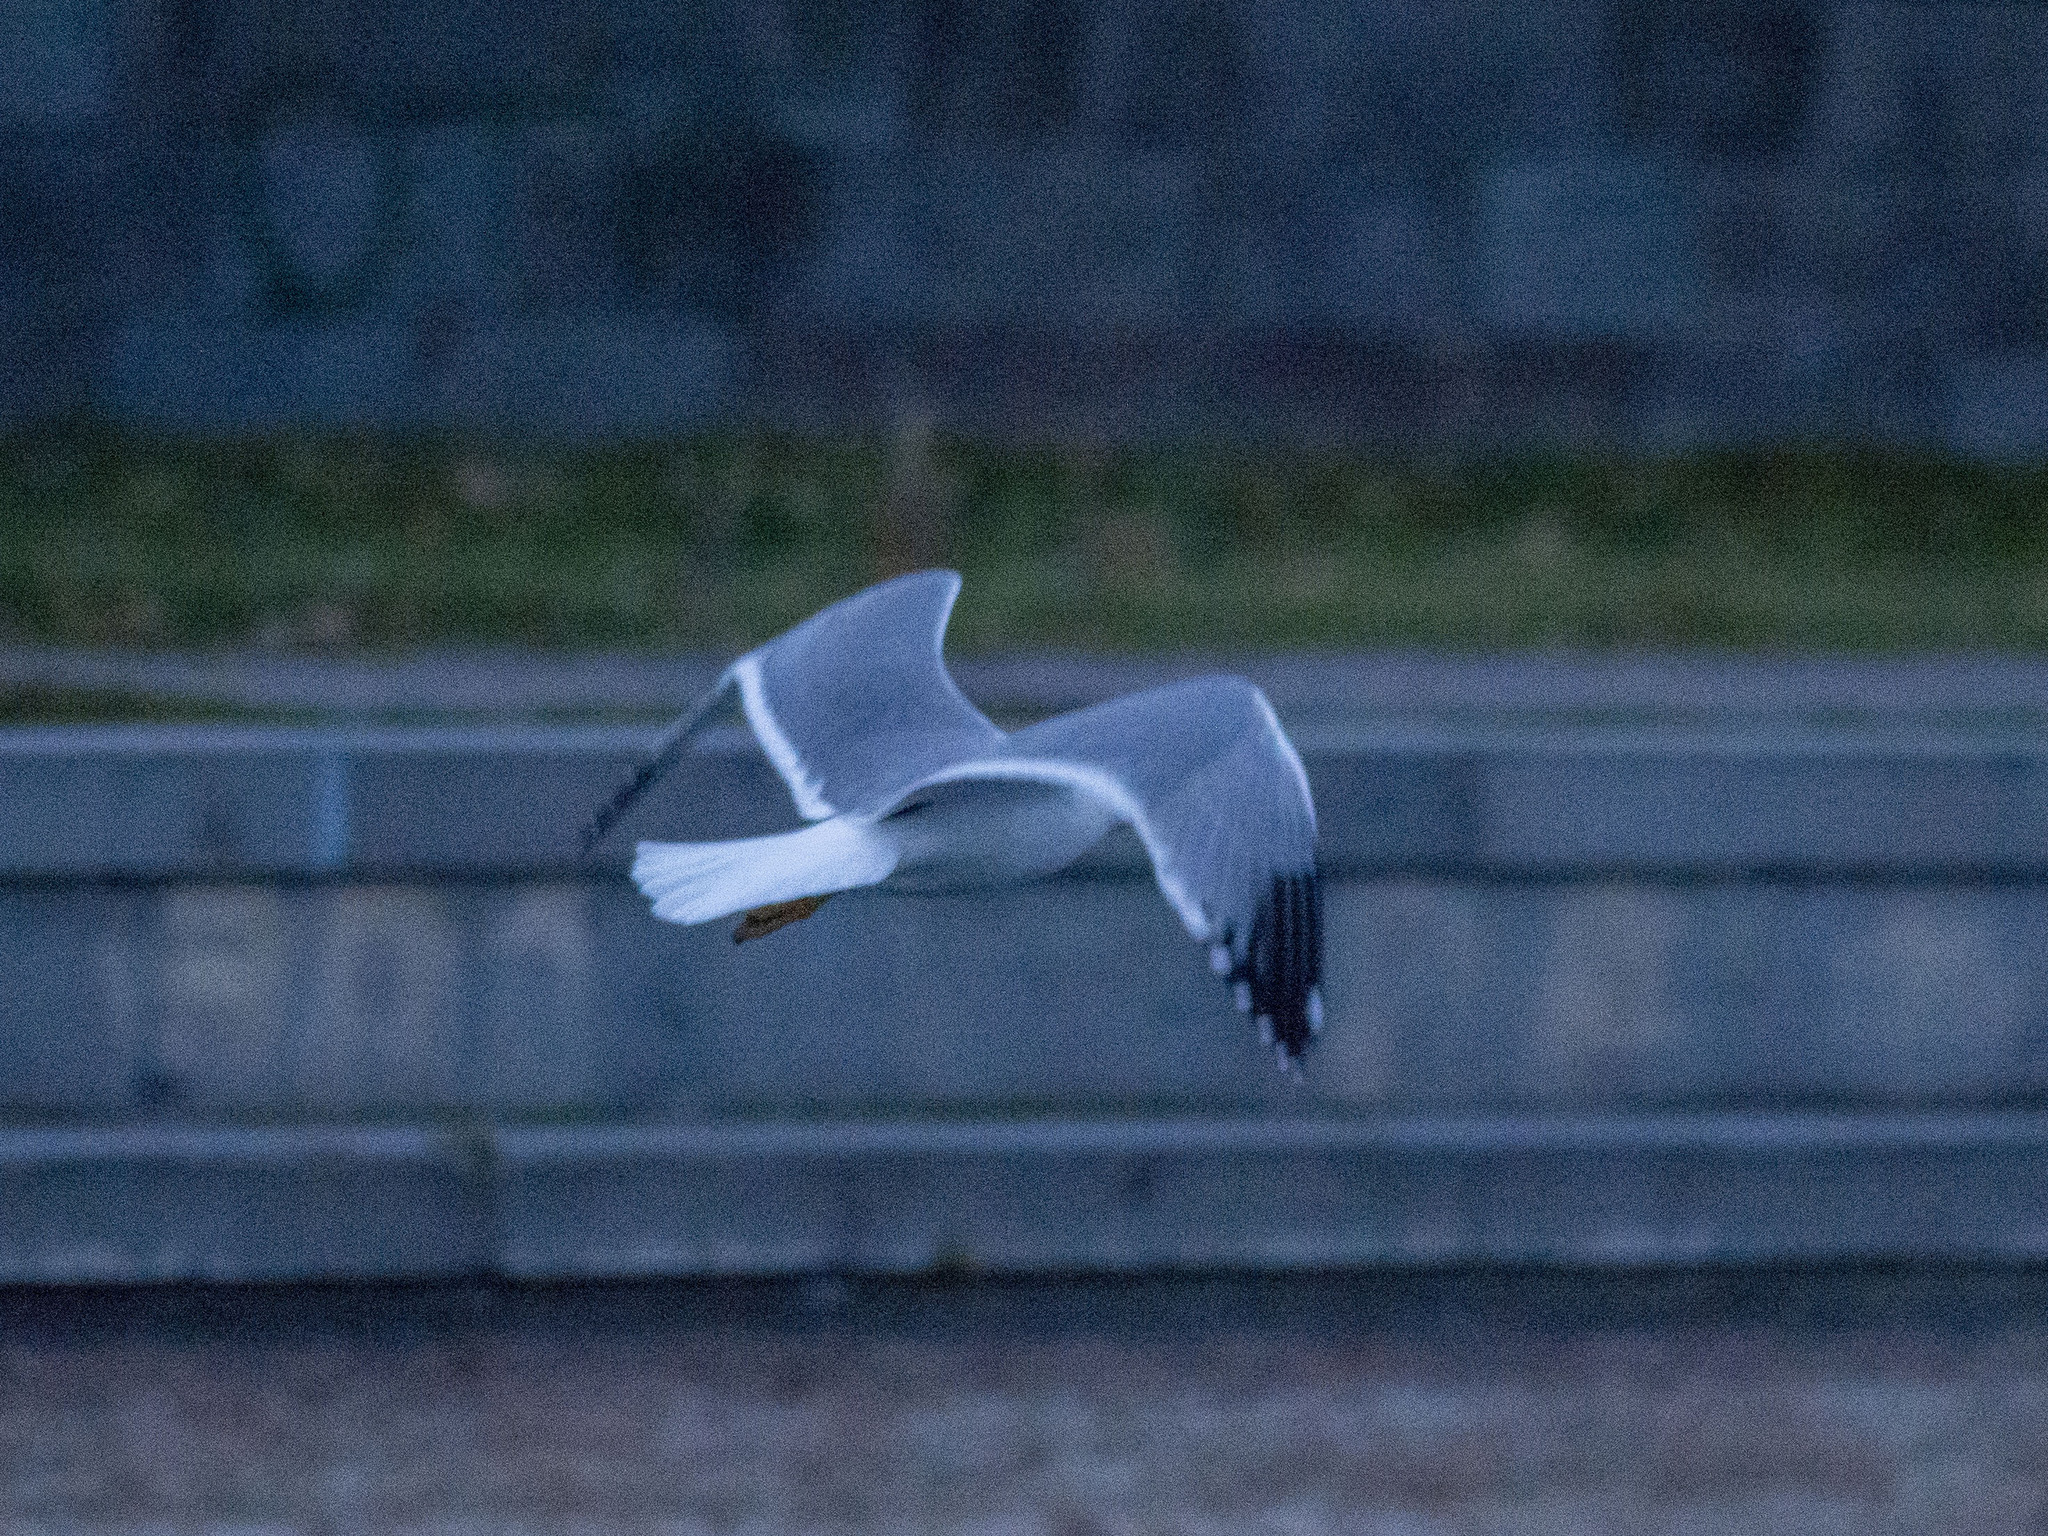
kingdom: Animalia
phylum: Chordata
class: Aves
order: Charadriiformes
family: Laridae
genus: Larus
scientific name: Larus armenicus
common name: Armenian gull
